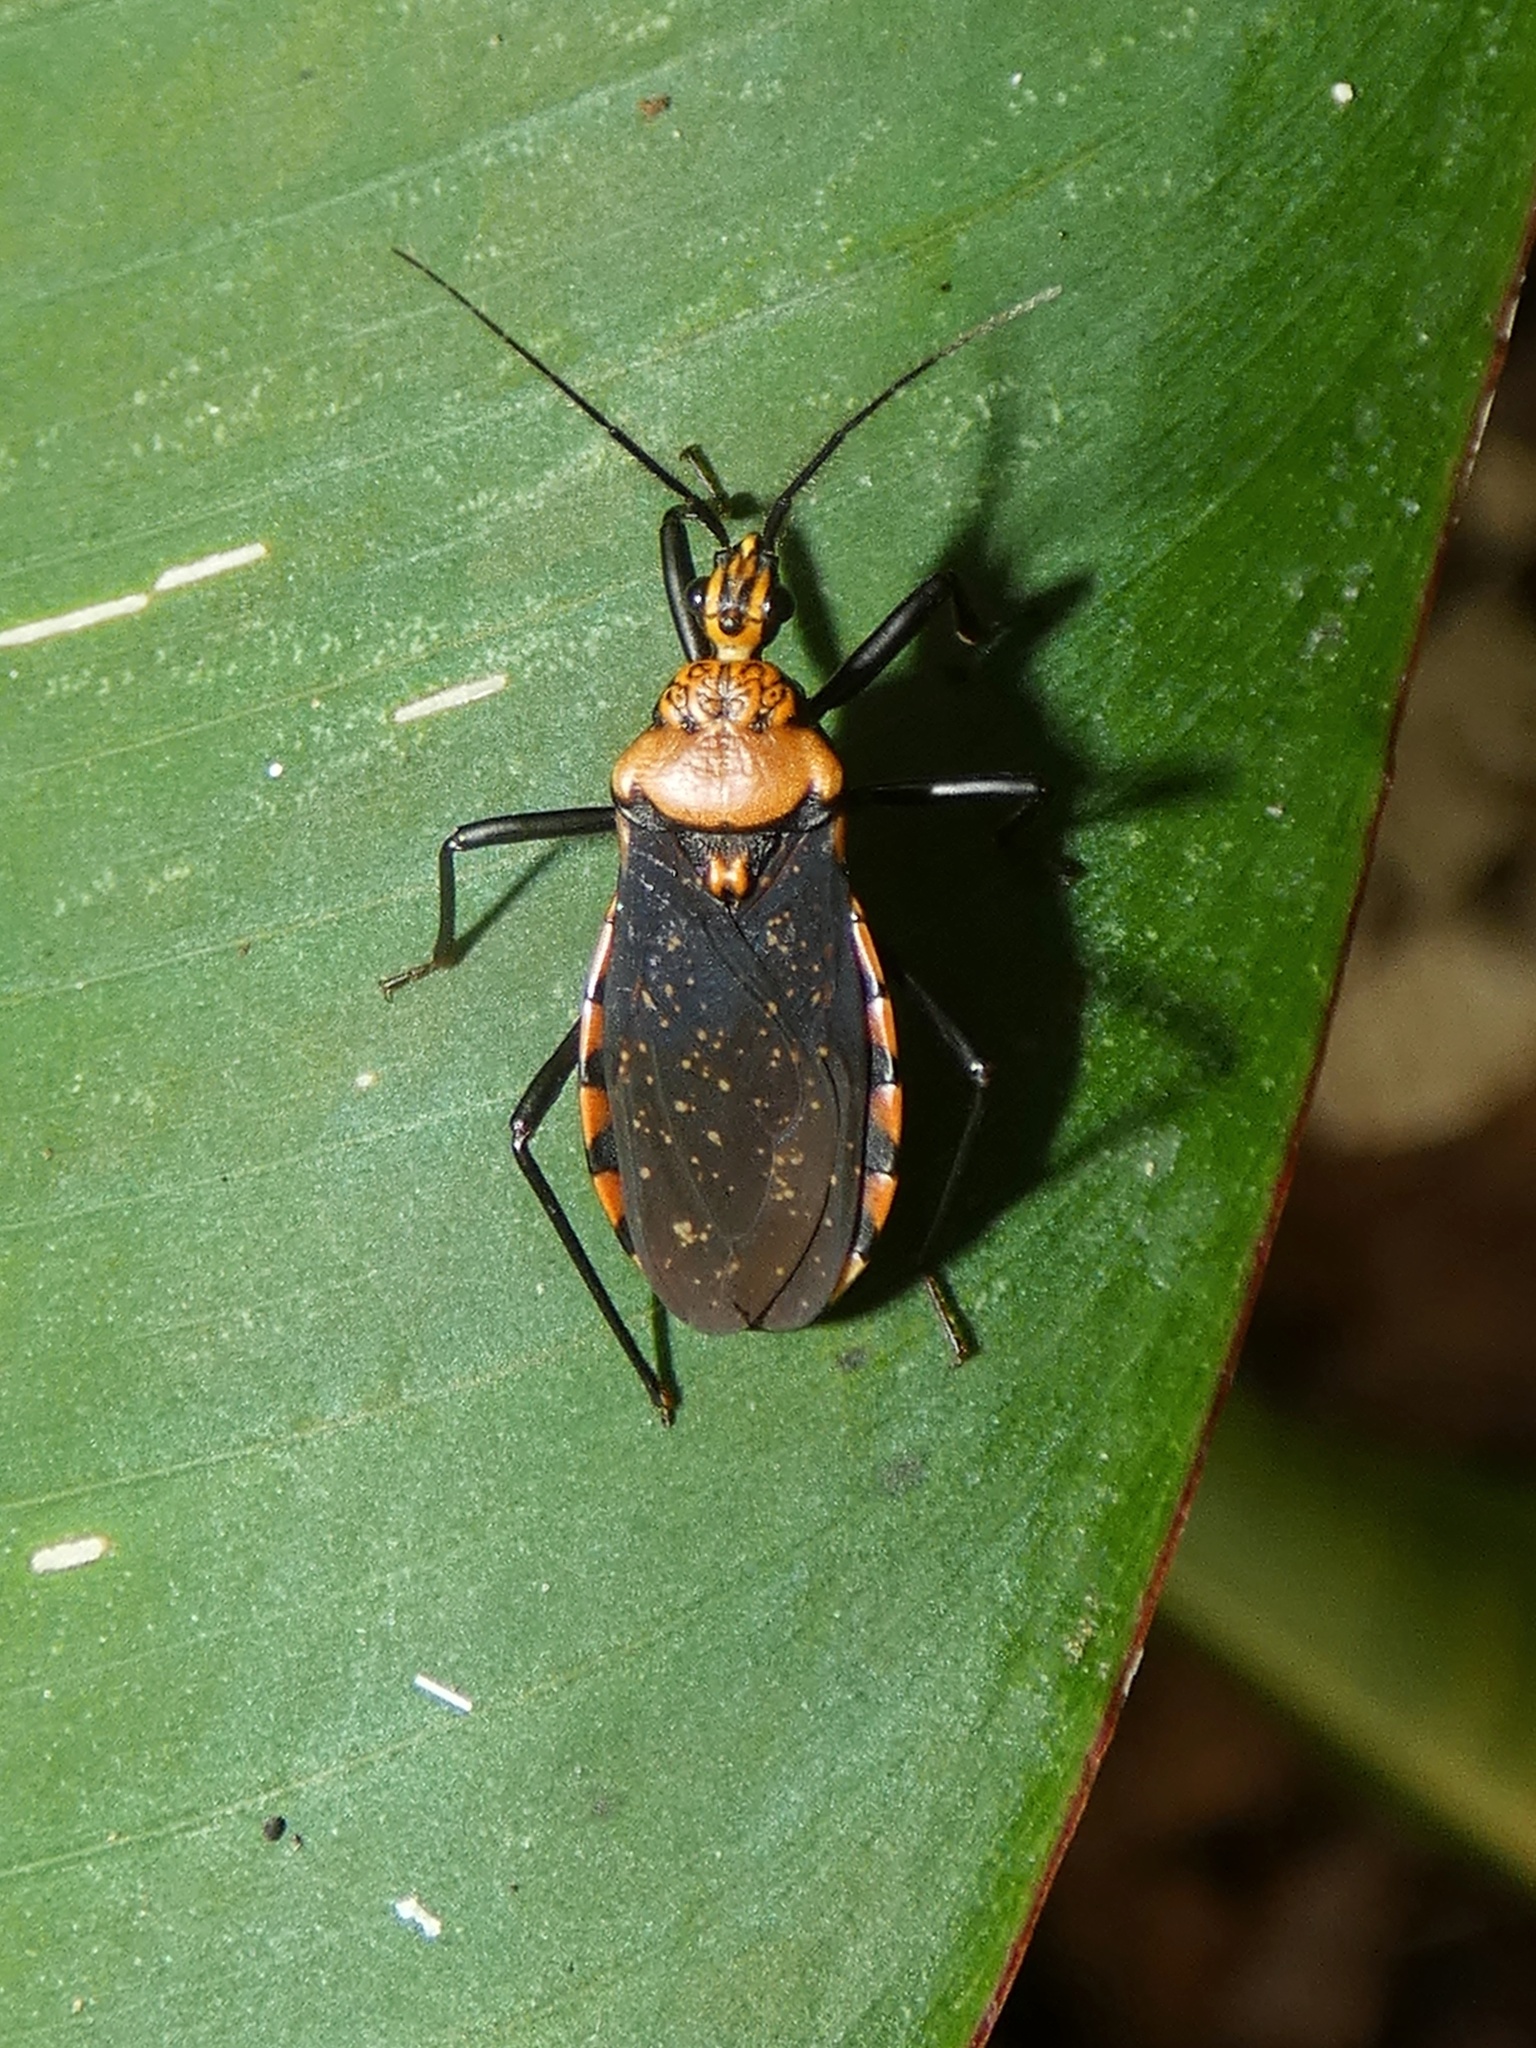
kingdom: Animalia
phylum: Arthropoda
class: Insecta
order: Hemiptera
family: Reduviidae
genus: Rhiginia
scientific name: Rhiginia conspersa
